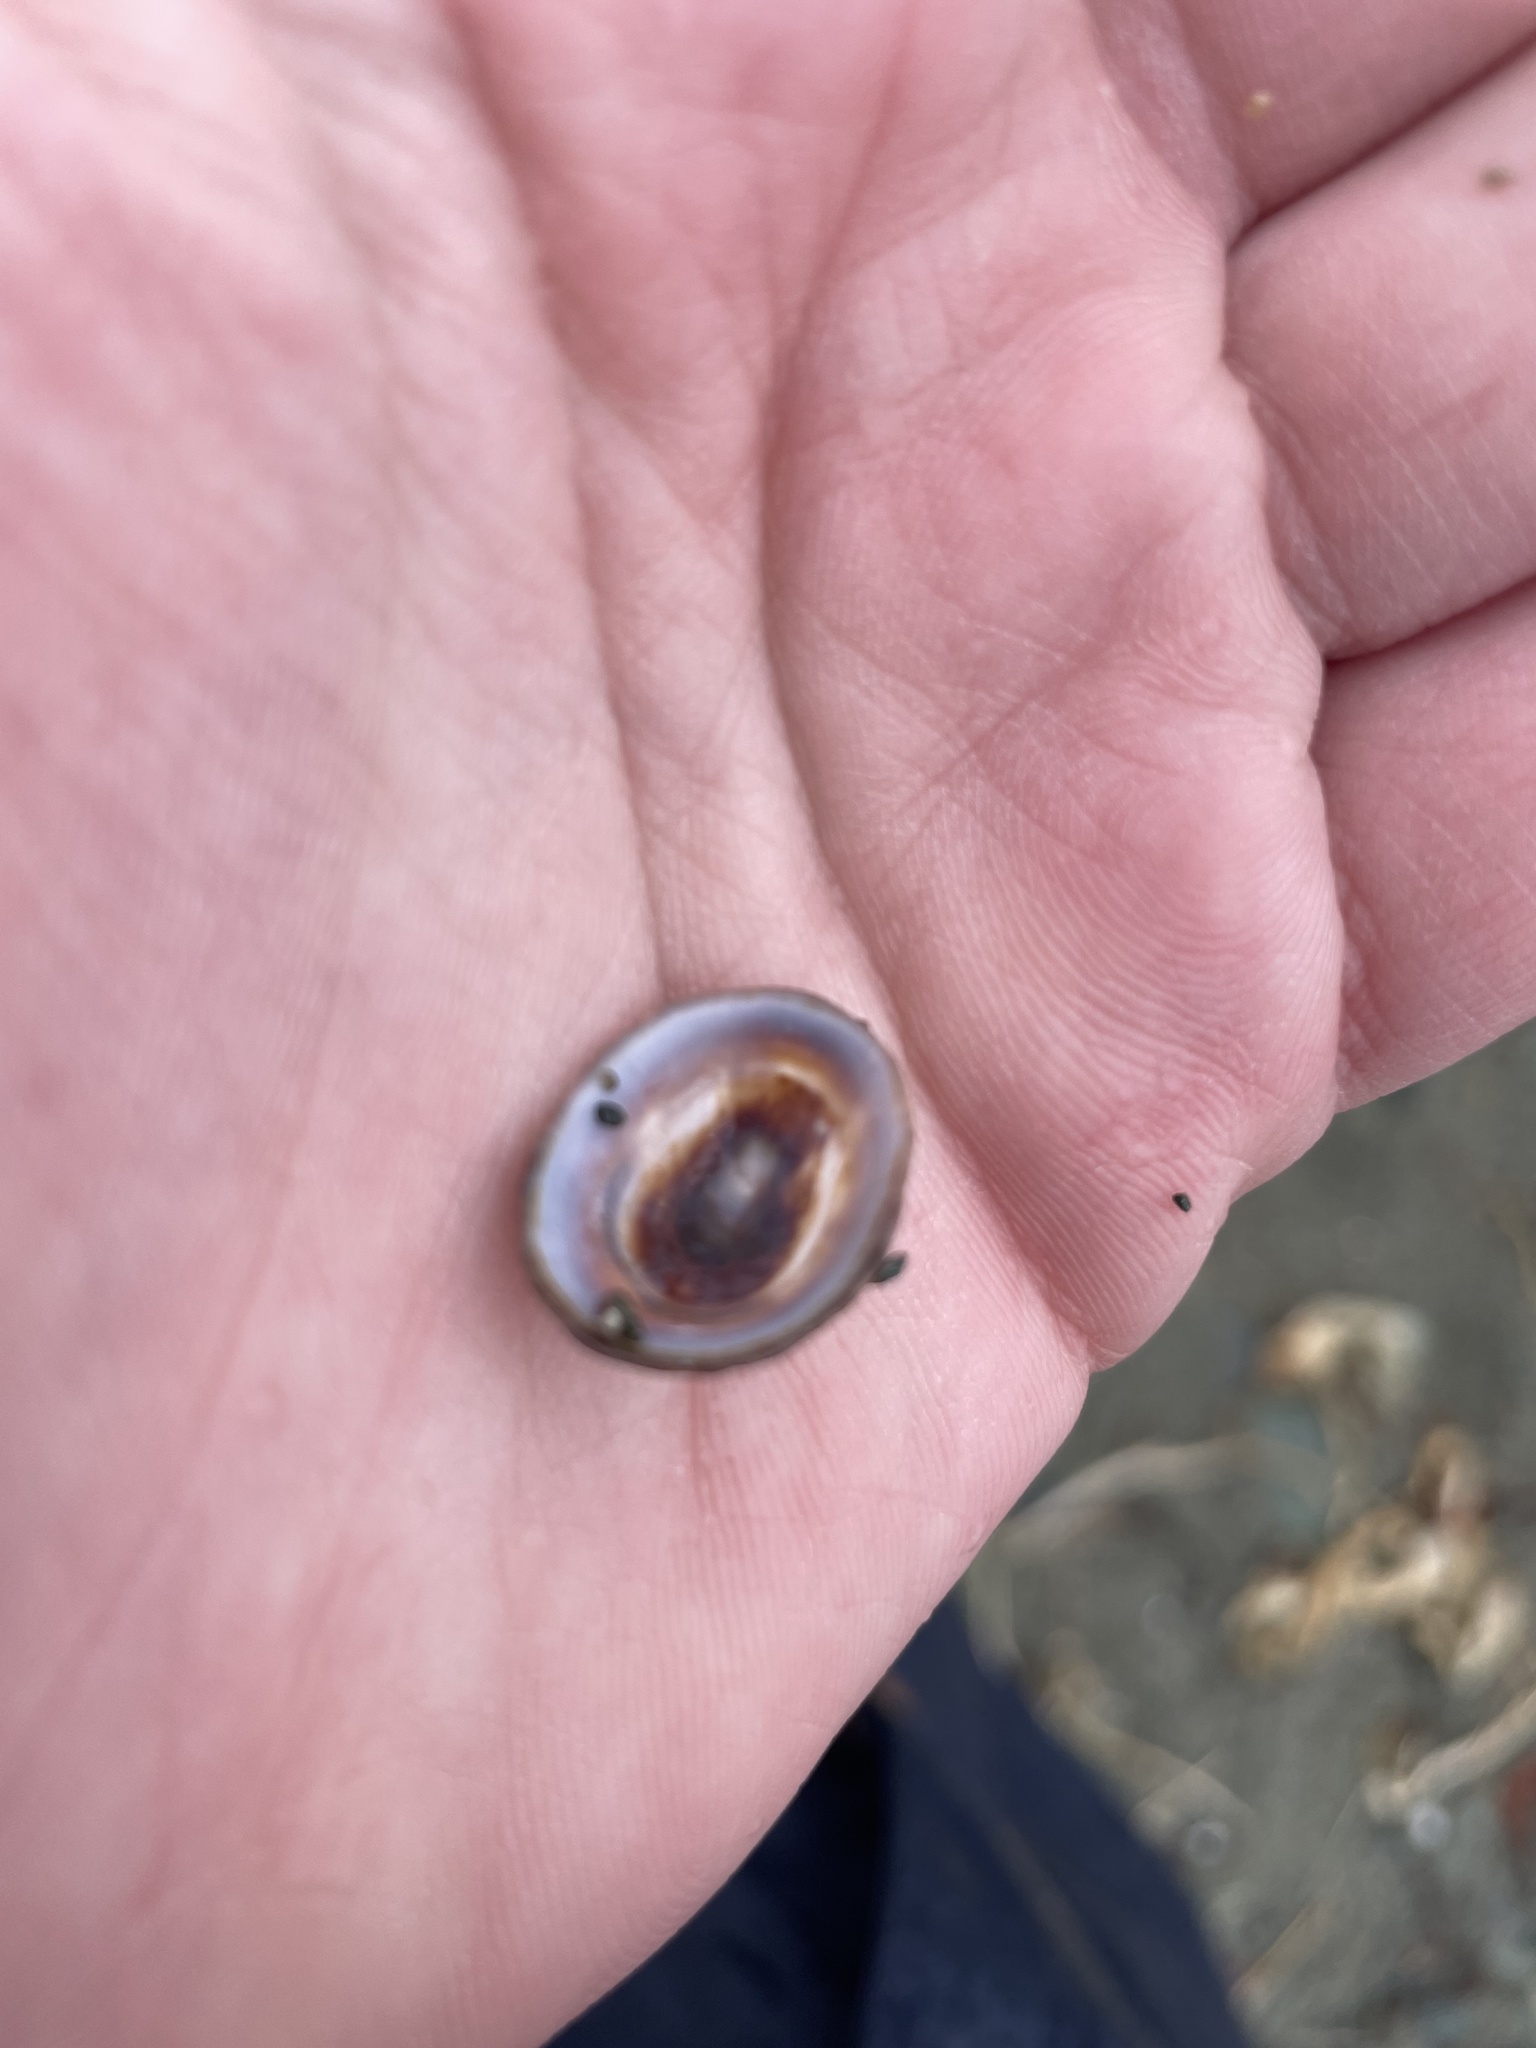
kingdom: Animalia
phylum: Mollusca
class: Gastropoda
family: Lottiidae
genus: Testudinalia
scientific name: Testudinalia testudinalis
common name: Common tortoiseshell limpet
